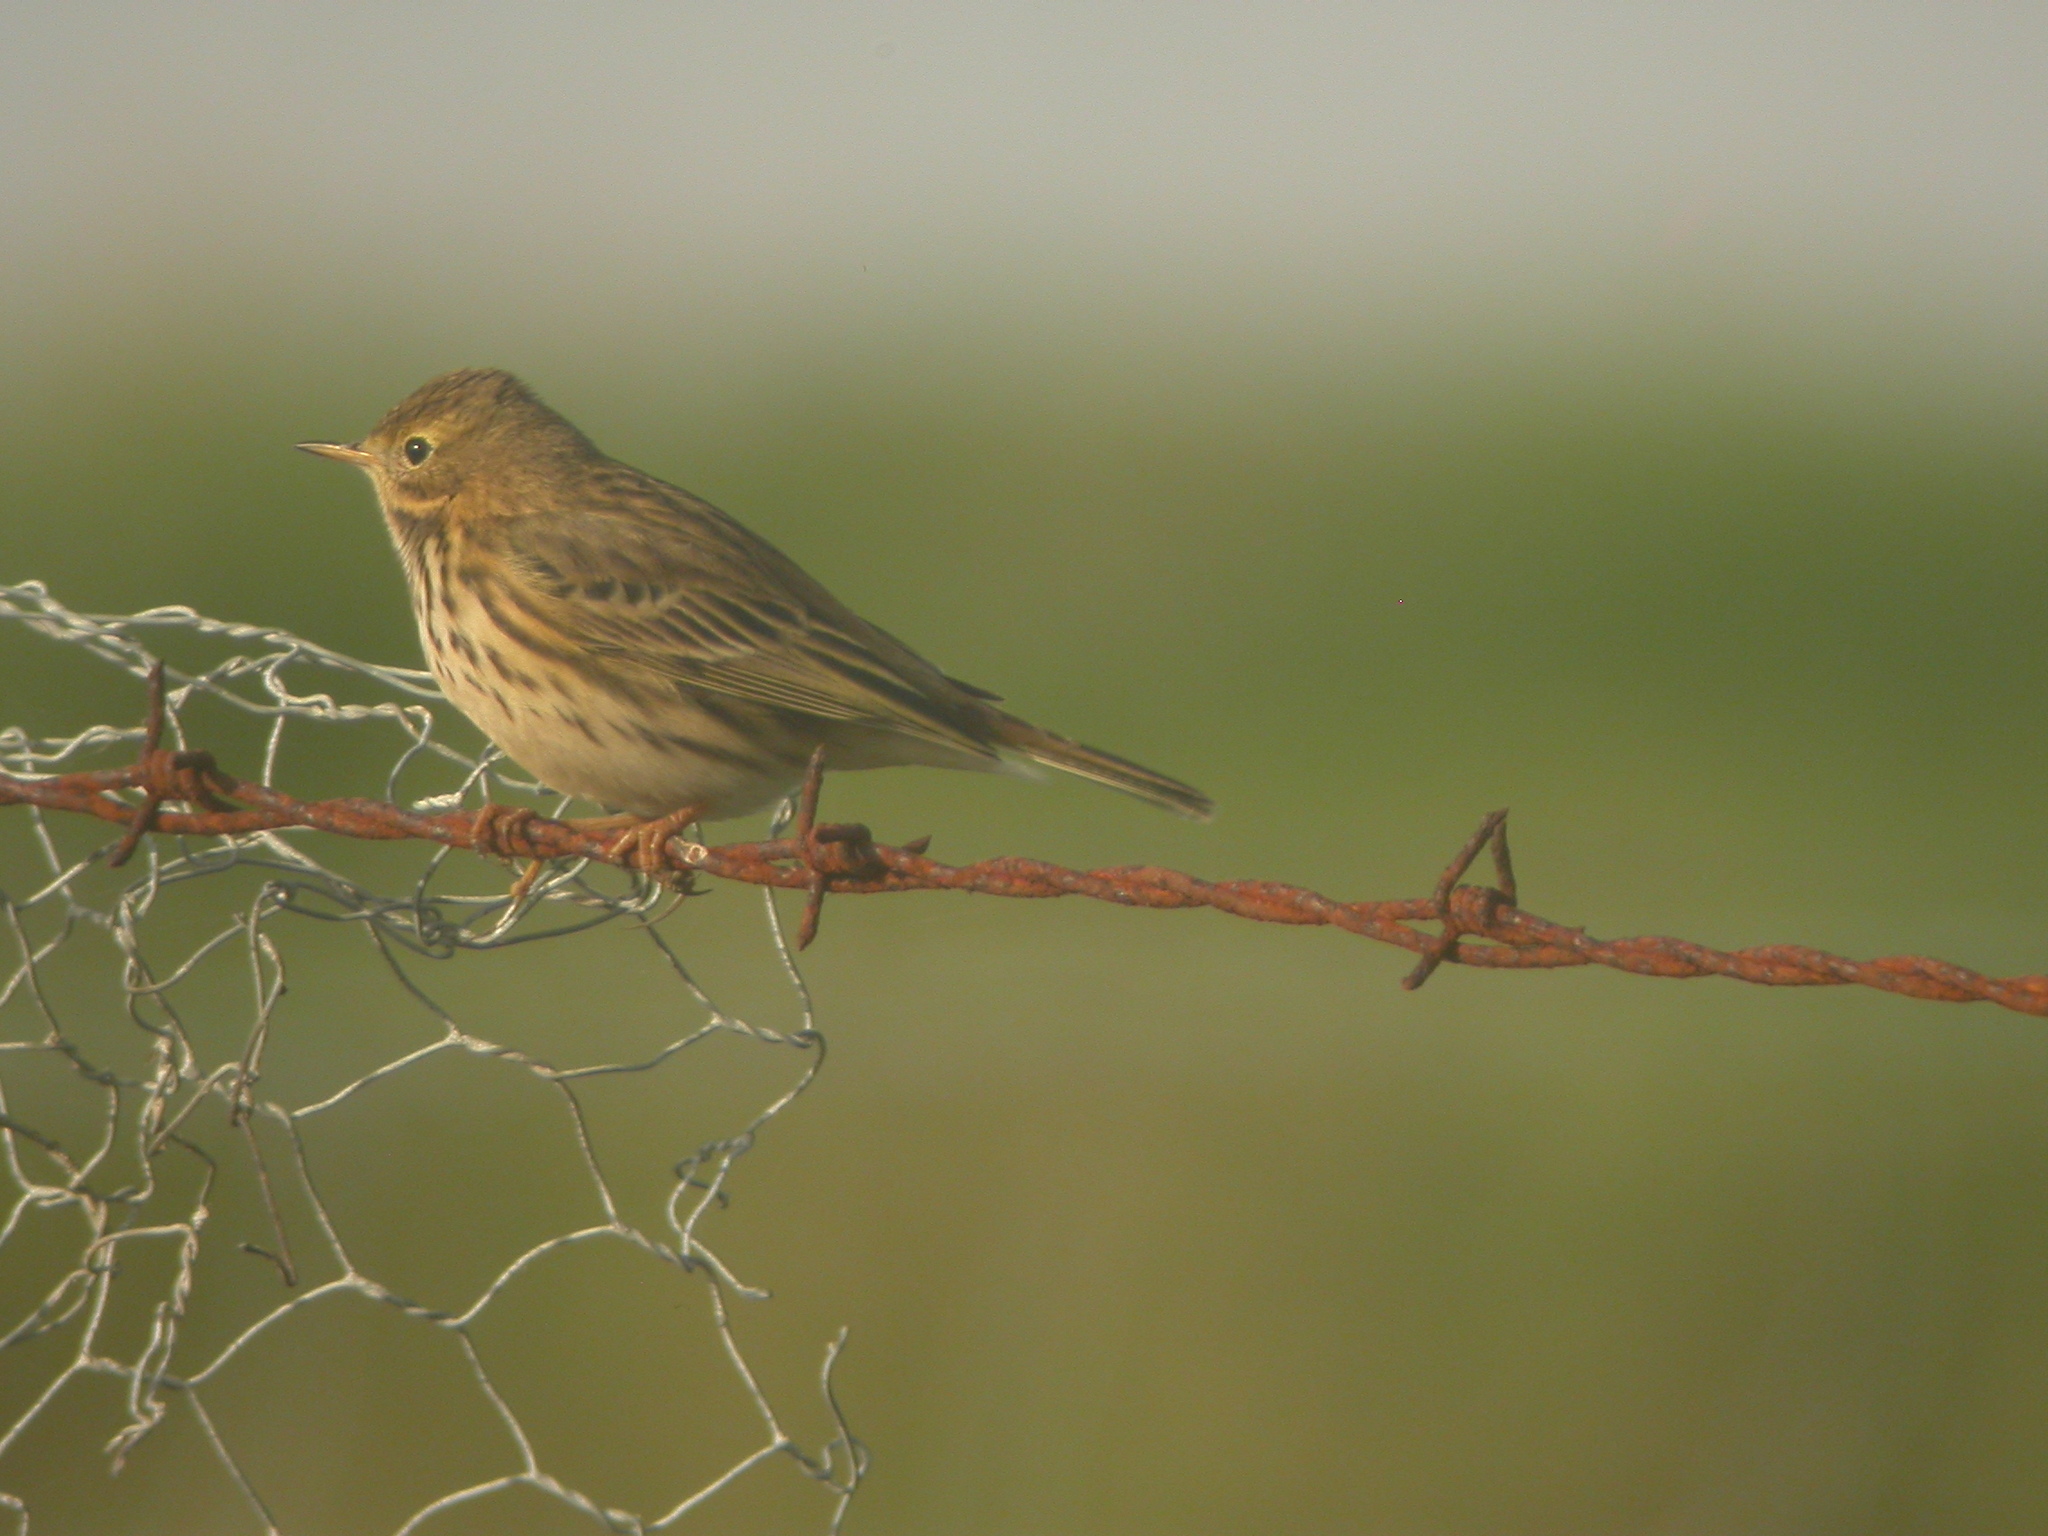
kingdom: Animalia
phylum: Chordata
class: Aves
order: Passeriformes
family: Motacillidae
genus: Anthus
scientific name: Anthus pratensis
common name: Meadow pipit
